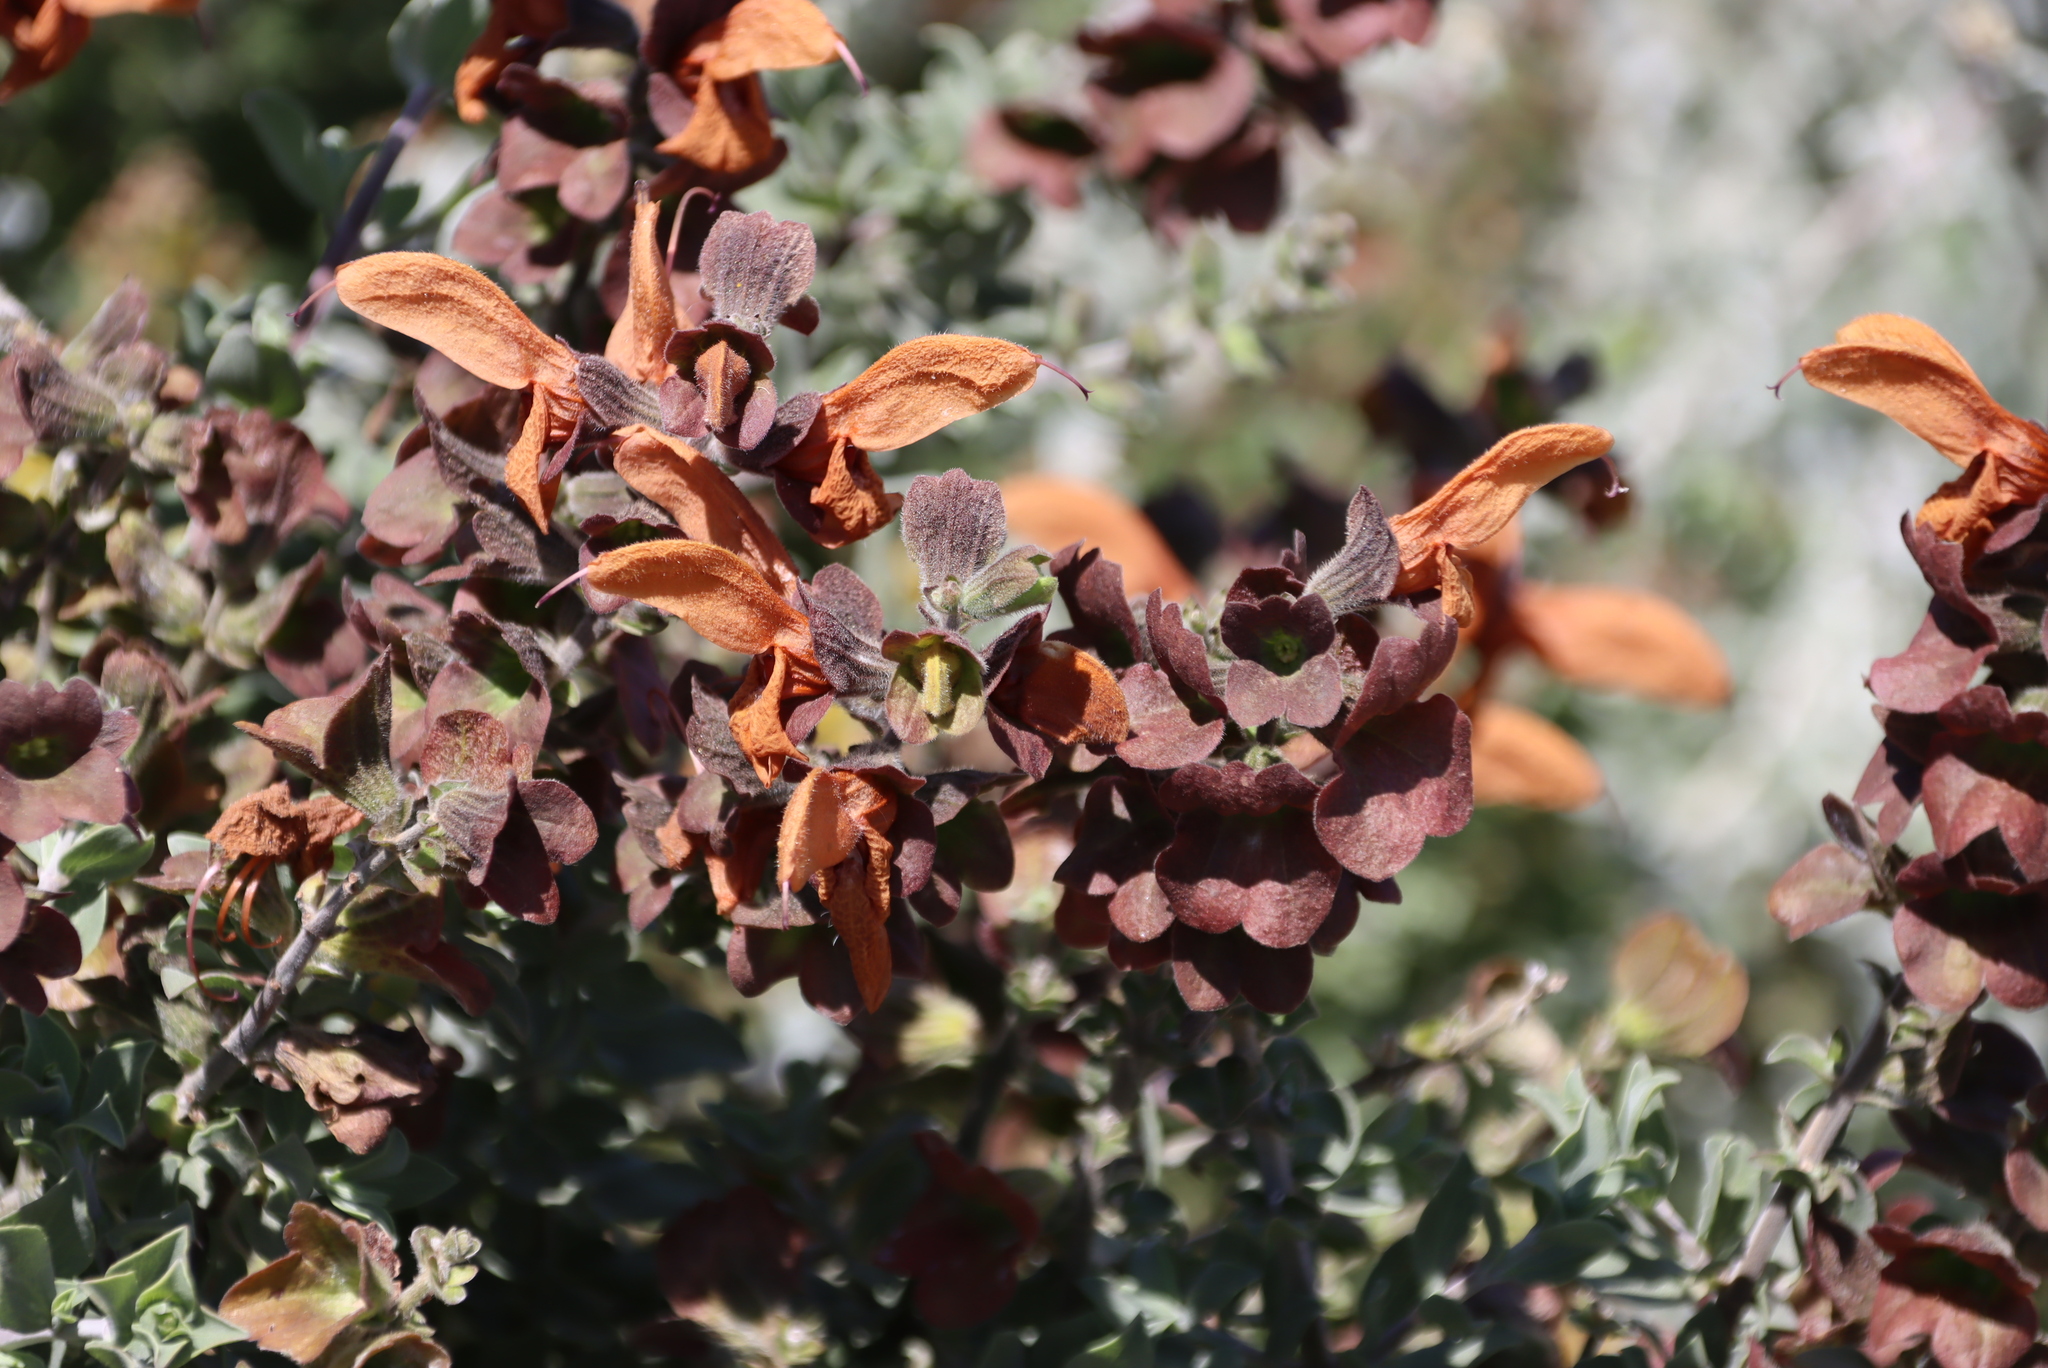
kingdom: Plantae
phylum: Tracheophyta
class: Magnoliopsida
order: Lamiales
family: Lamiaceae
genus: Salvia
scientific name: Salvia aurea
